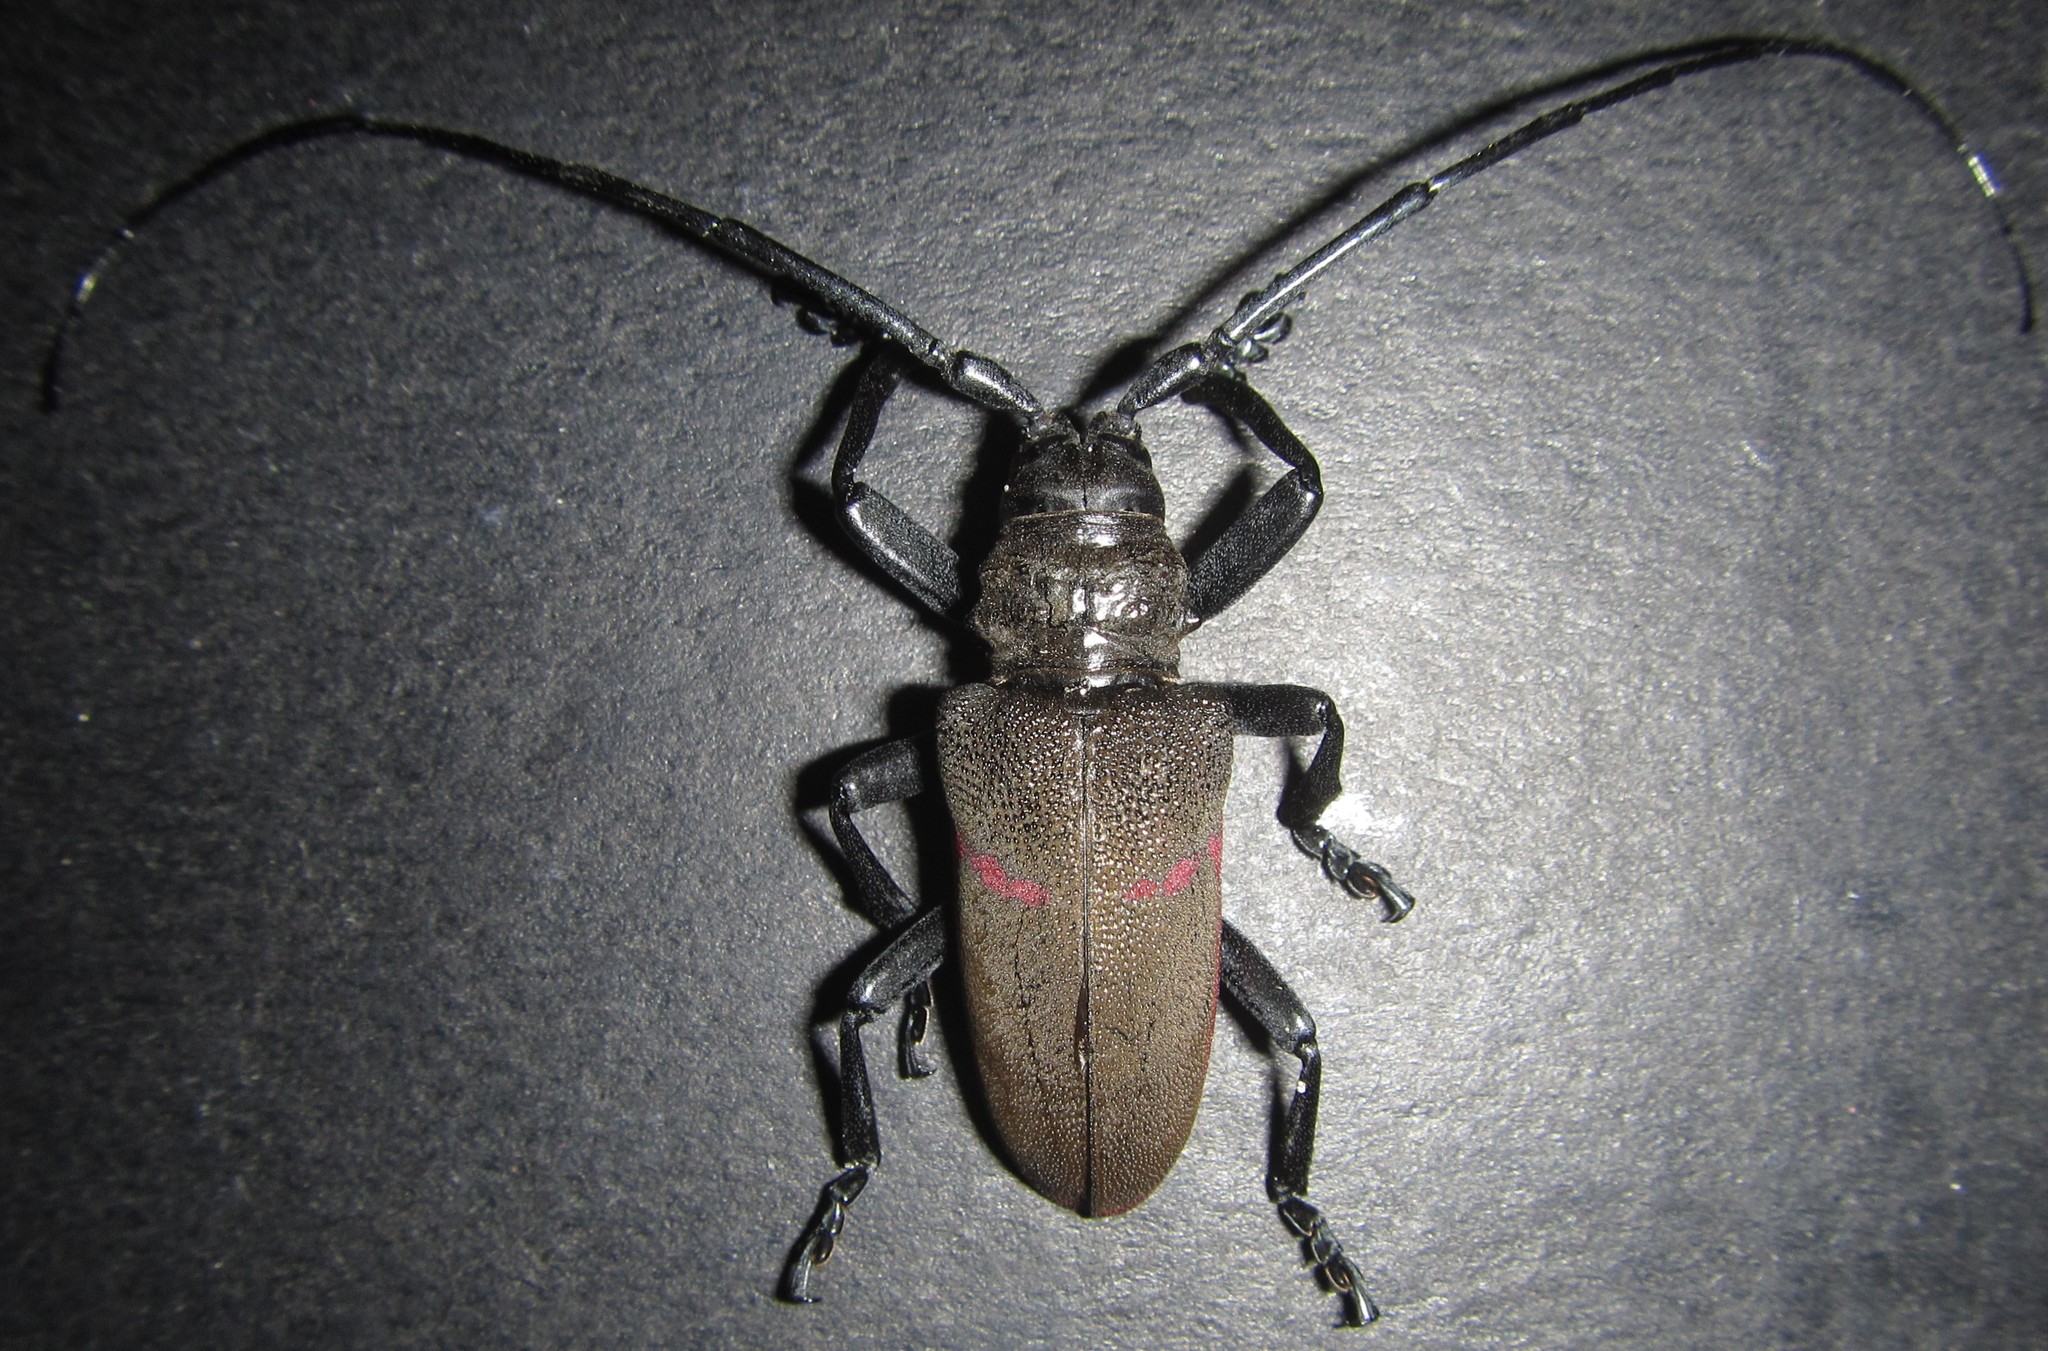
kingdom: Animalia
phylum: Arthropoda
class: Insecta
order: Coleoptera
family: Cerambycidae
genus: Ceroplesis
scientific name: Ceroplesis ferrugator
